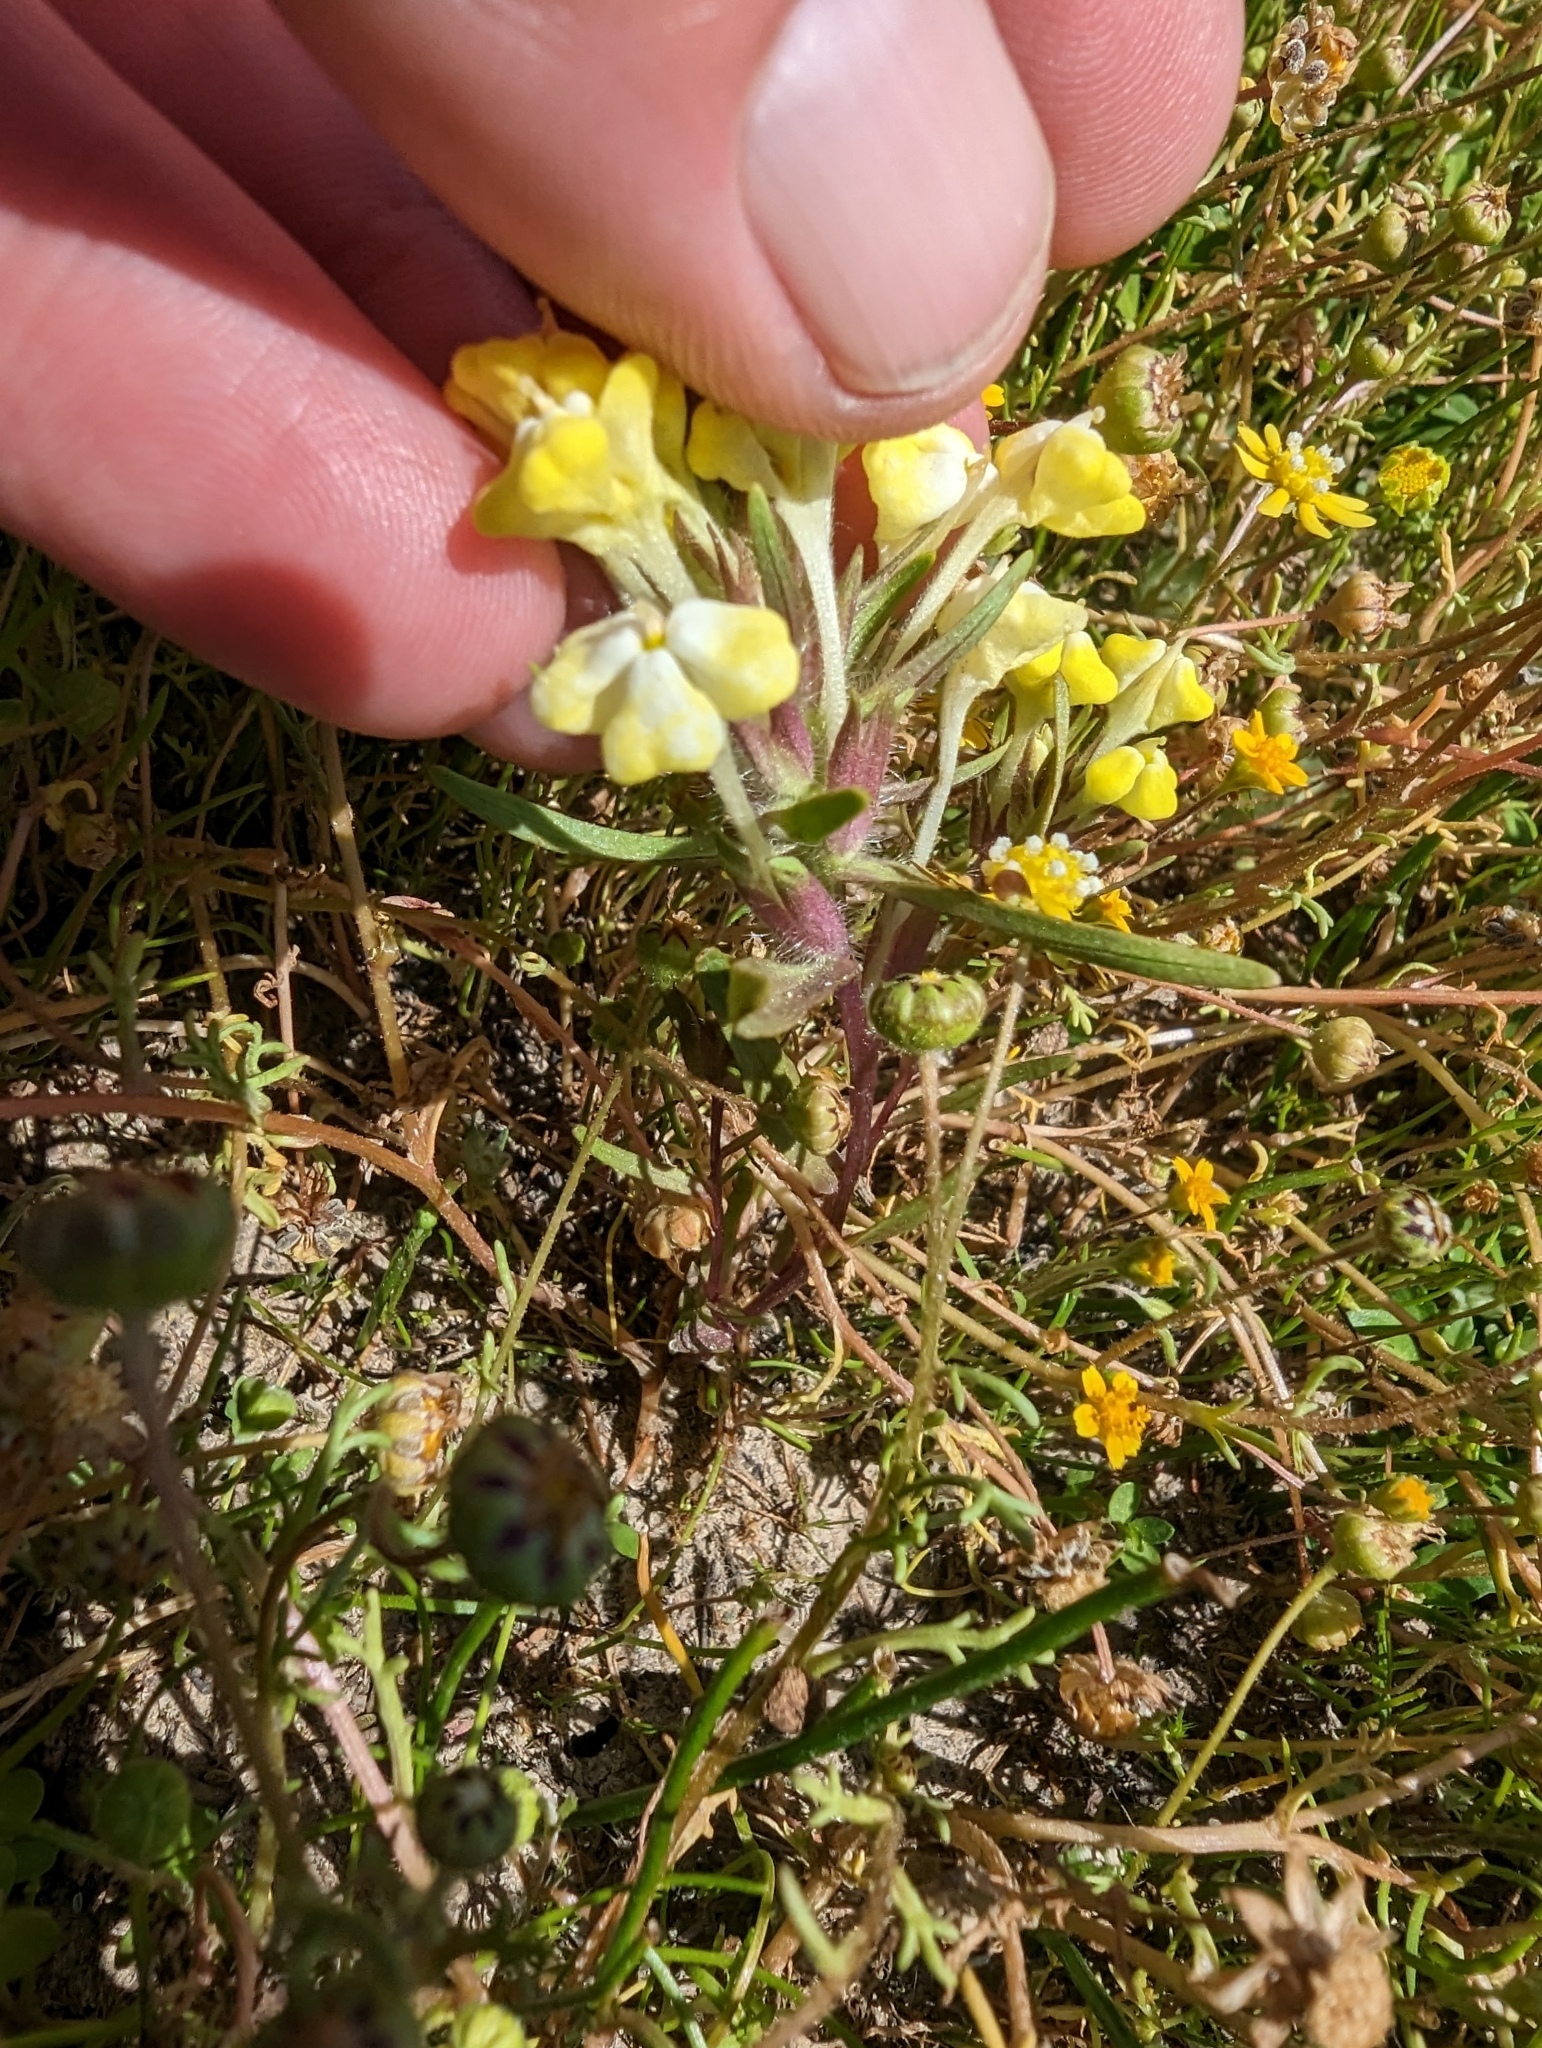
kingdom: Plantae
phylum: Tracheophyta
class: Magnoliopsida
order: Lamiales
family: Orobanchaceae
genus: Castilleja
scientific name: Castilleja campestris
